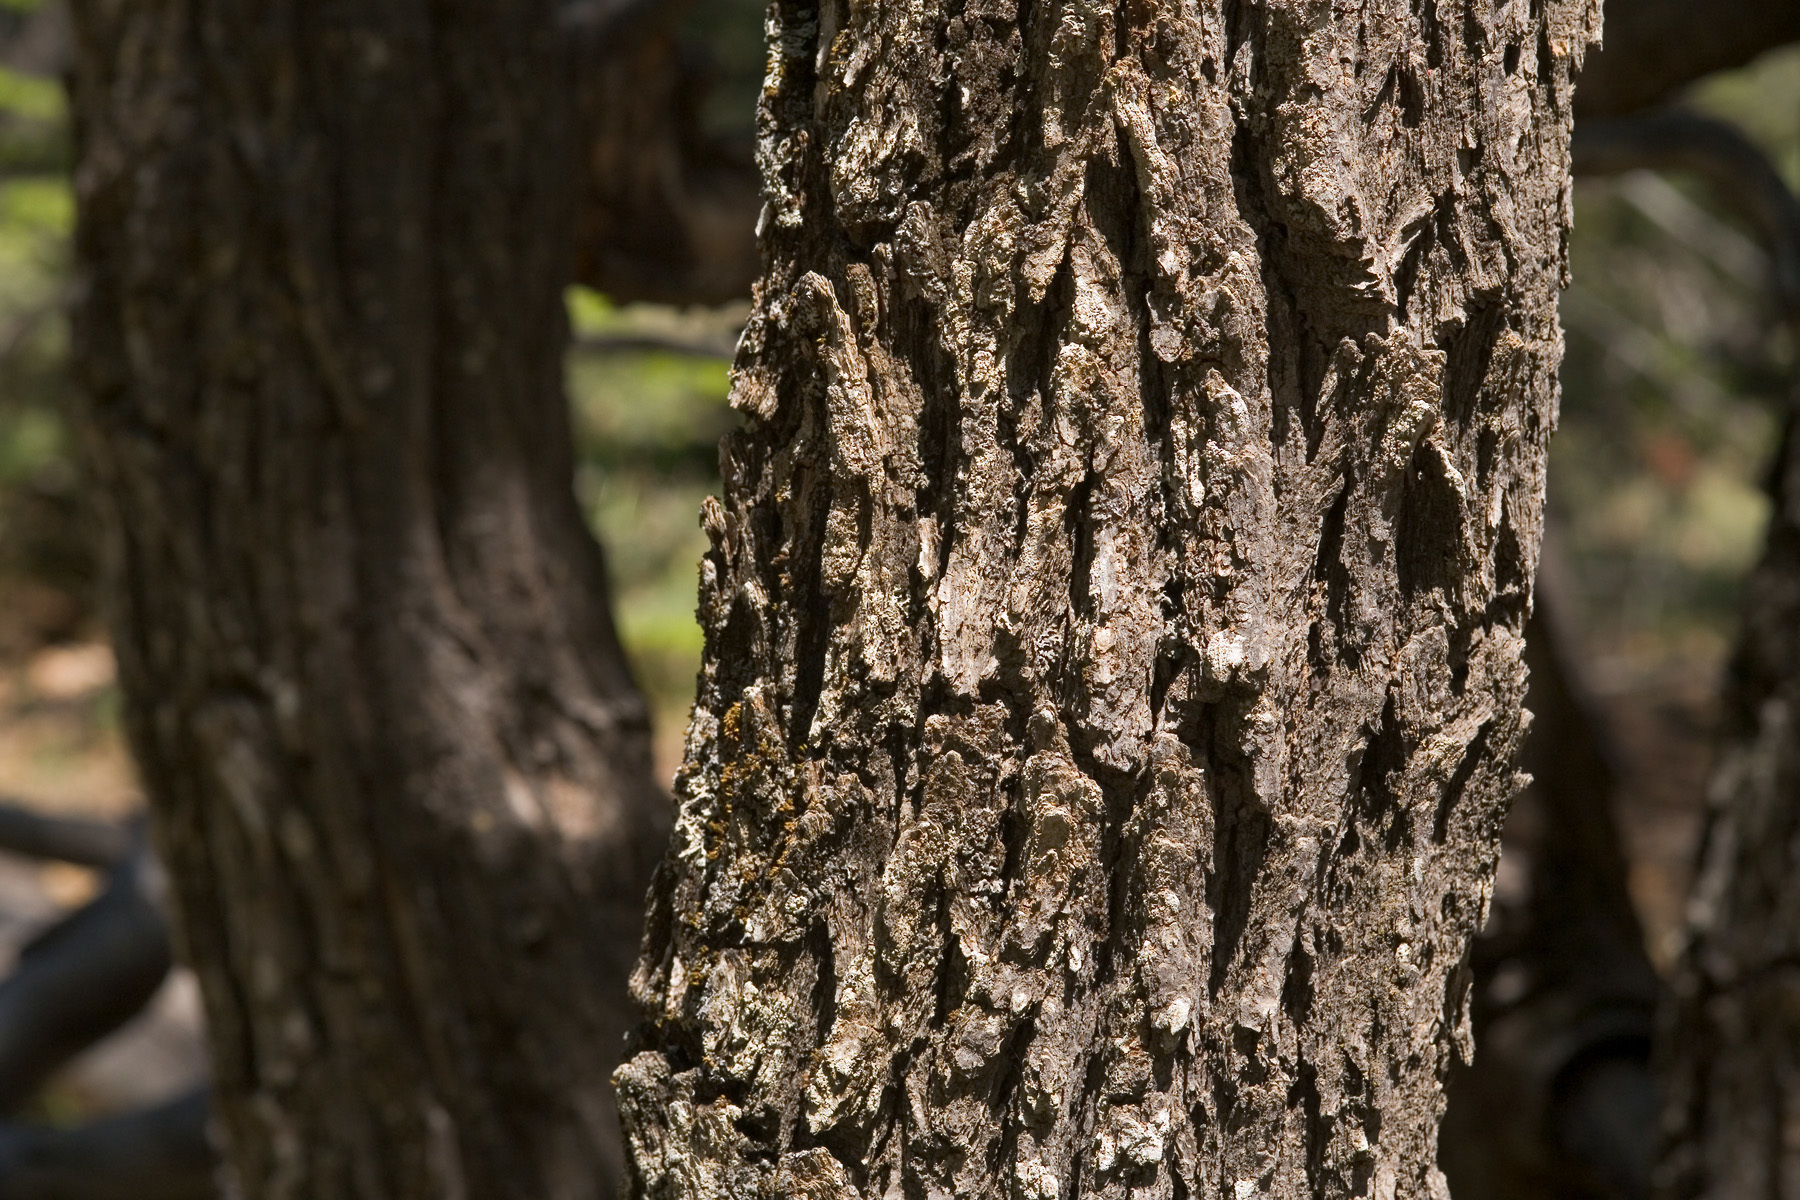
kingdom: Plantae
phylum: Tracheophyta
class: Magnoliopsida
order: Fagales
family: Fagaceae
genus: Quercus
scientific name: Quercus gambelii
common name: Gambel oak
